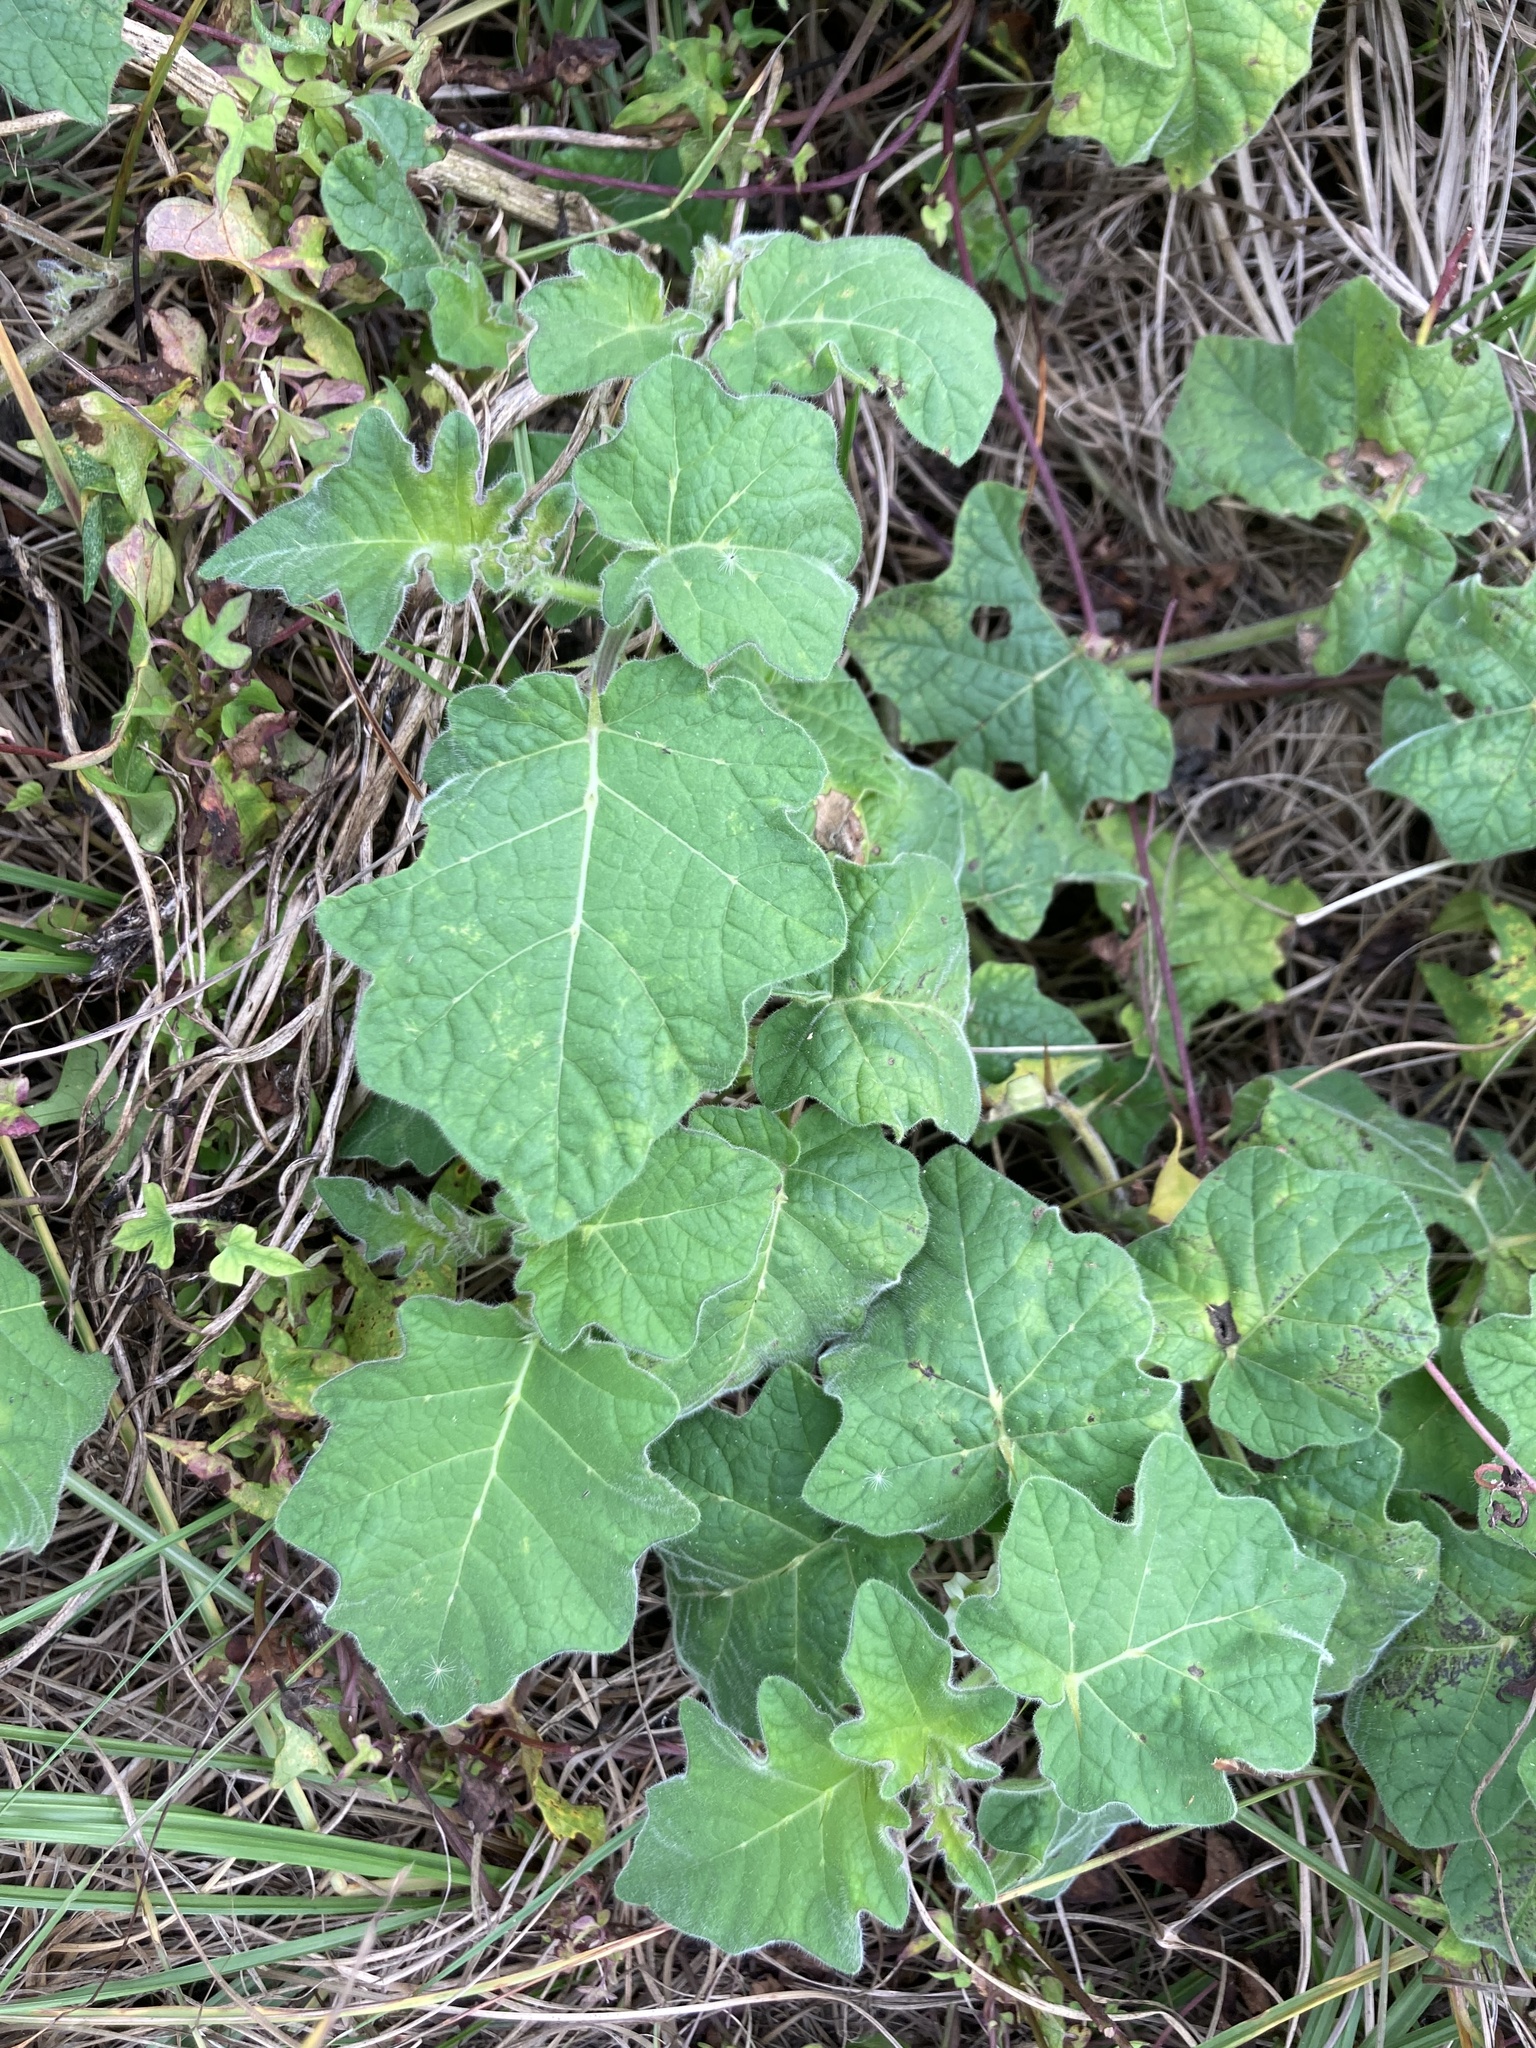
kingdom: Plantae
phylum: Tracheophyta
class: Magnoliopsida
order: Solanales
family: Solanaceae
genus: Solanum
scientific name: Solanum viarum
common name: Tropical soda apple
